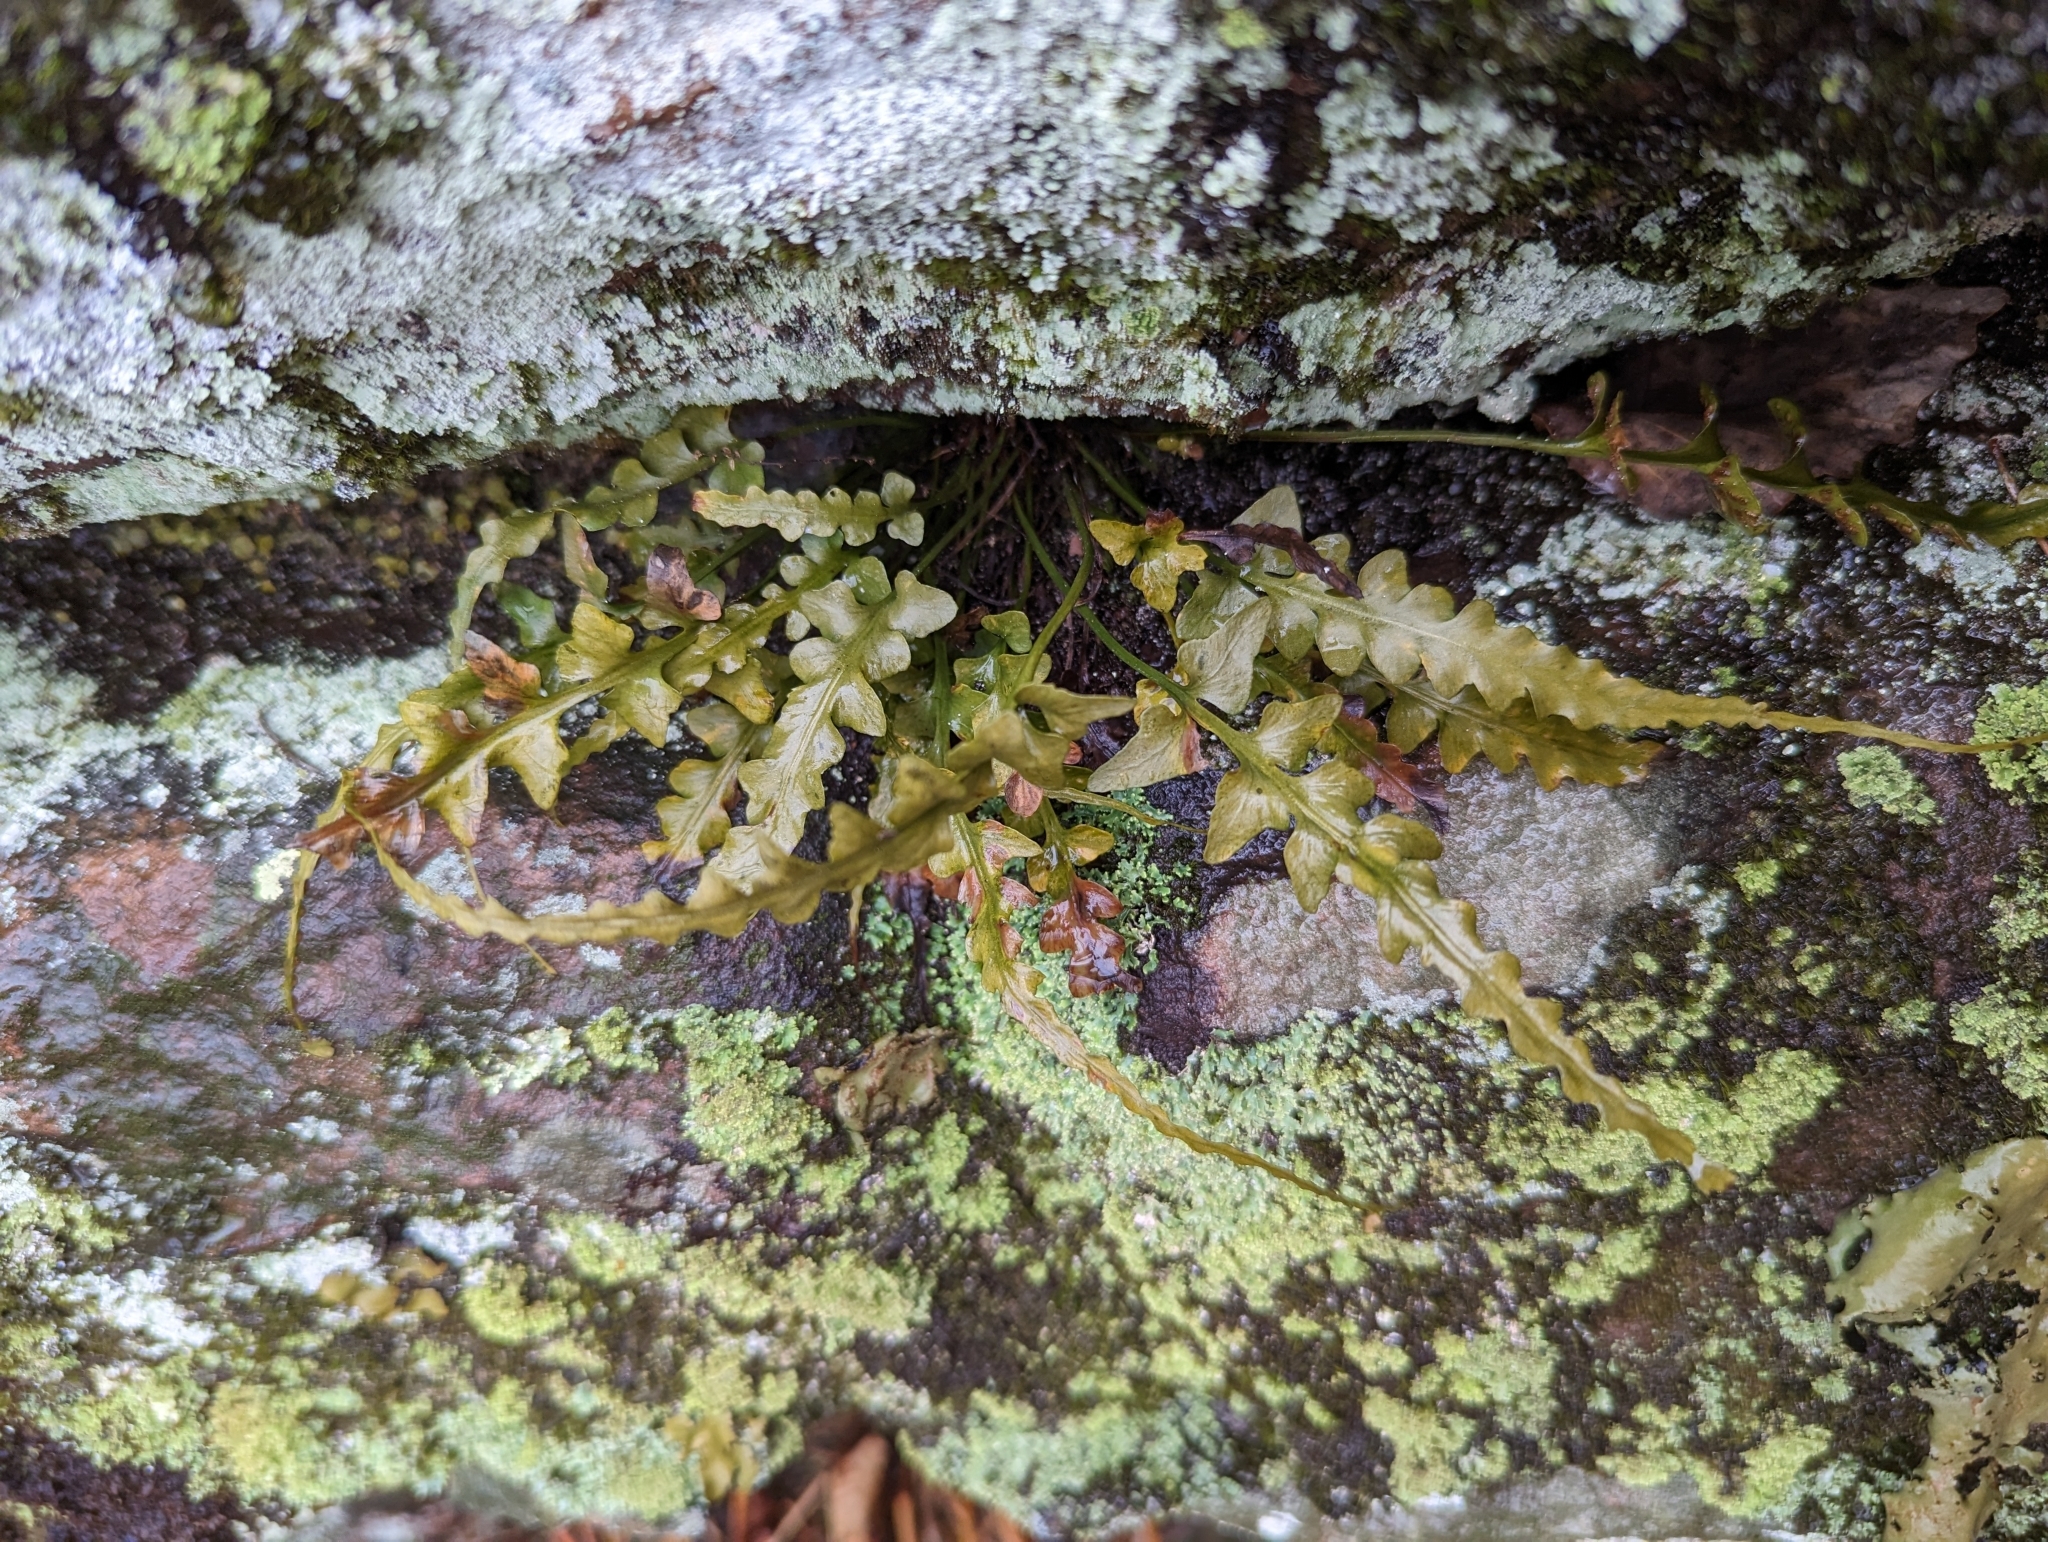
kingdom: Plantae
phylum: Tracheophyta
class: Polypodiopsida
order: Polypodiales
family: Aspleniaceae
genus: Asplenium
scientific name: Asplenium pinnatifidum
